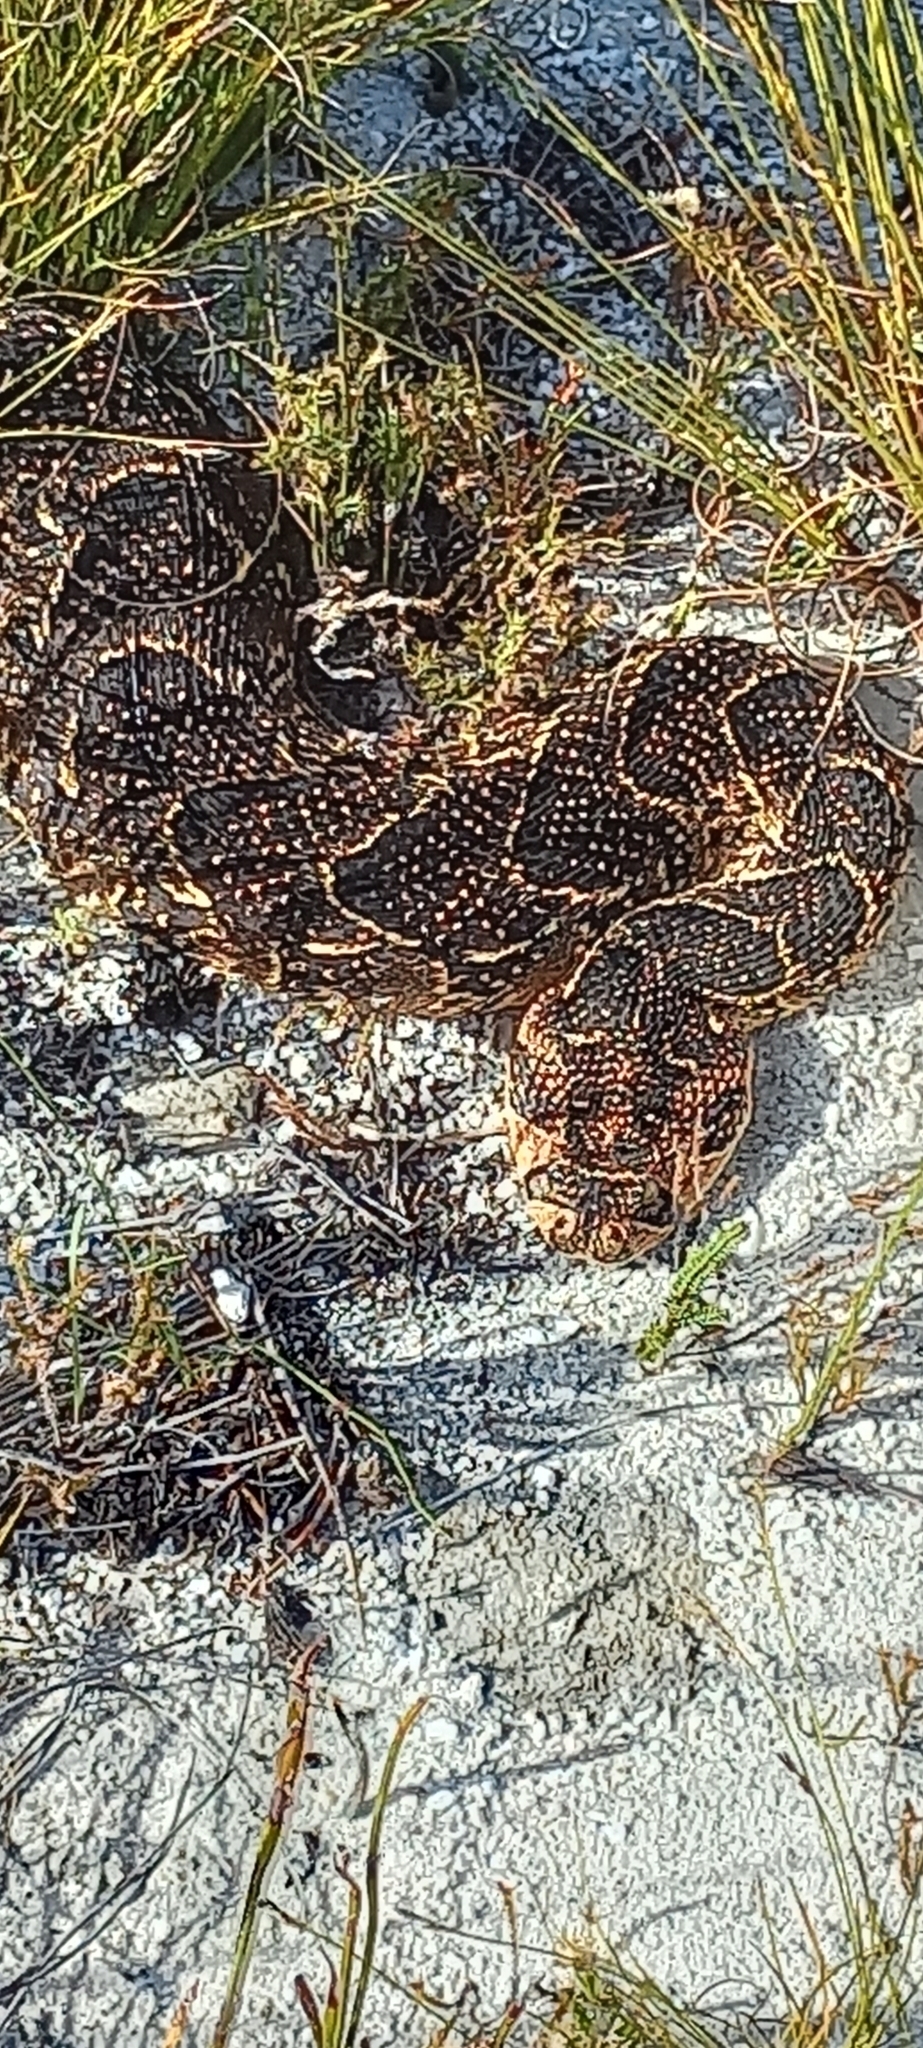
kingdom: Animalia
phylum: Chordata
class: Squamata
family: Viperidae
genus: Bitis
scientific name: Bitis arietans
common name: Puff adder
